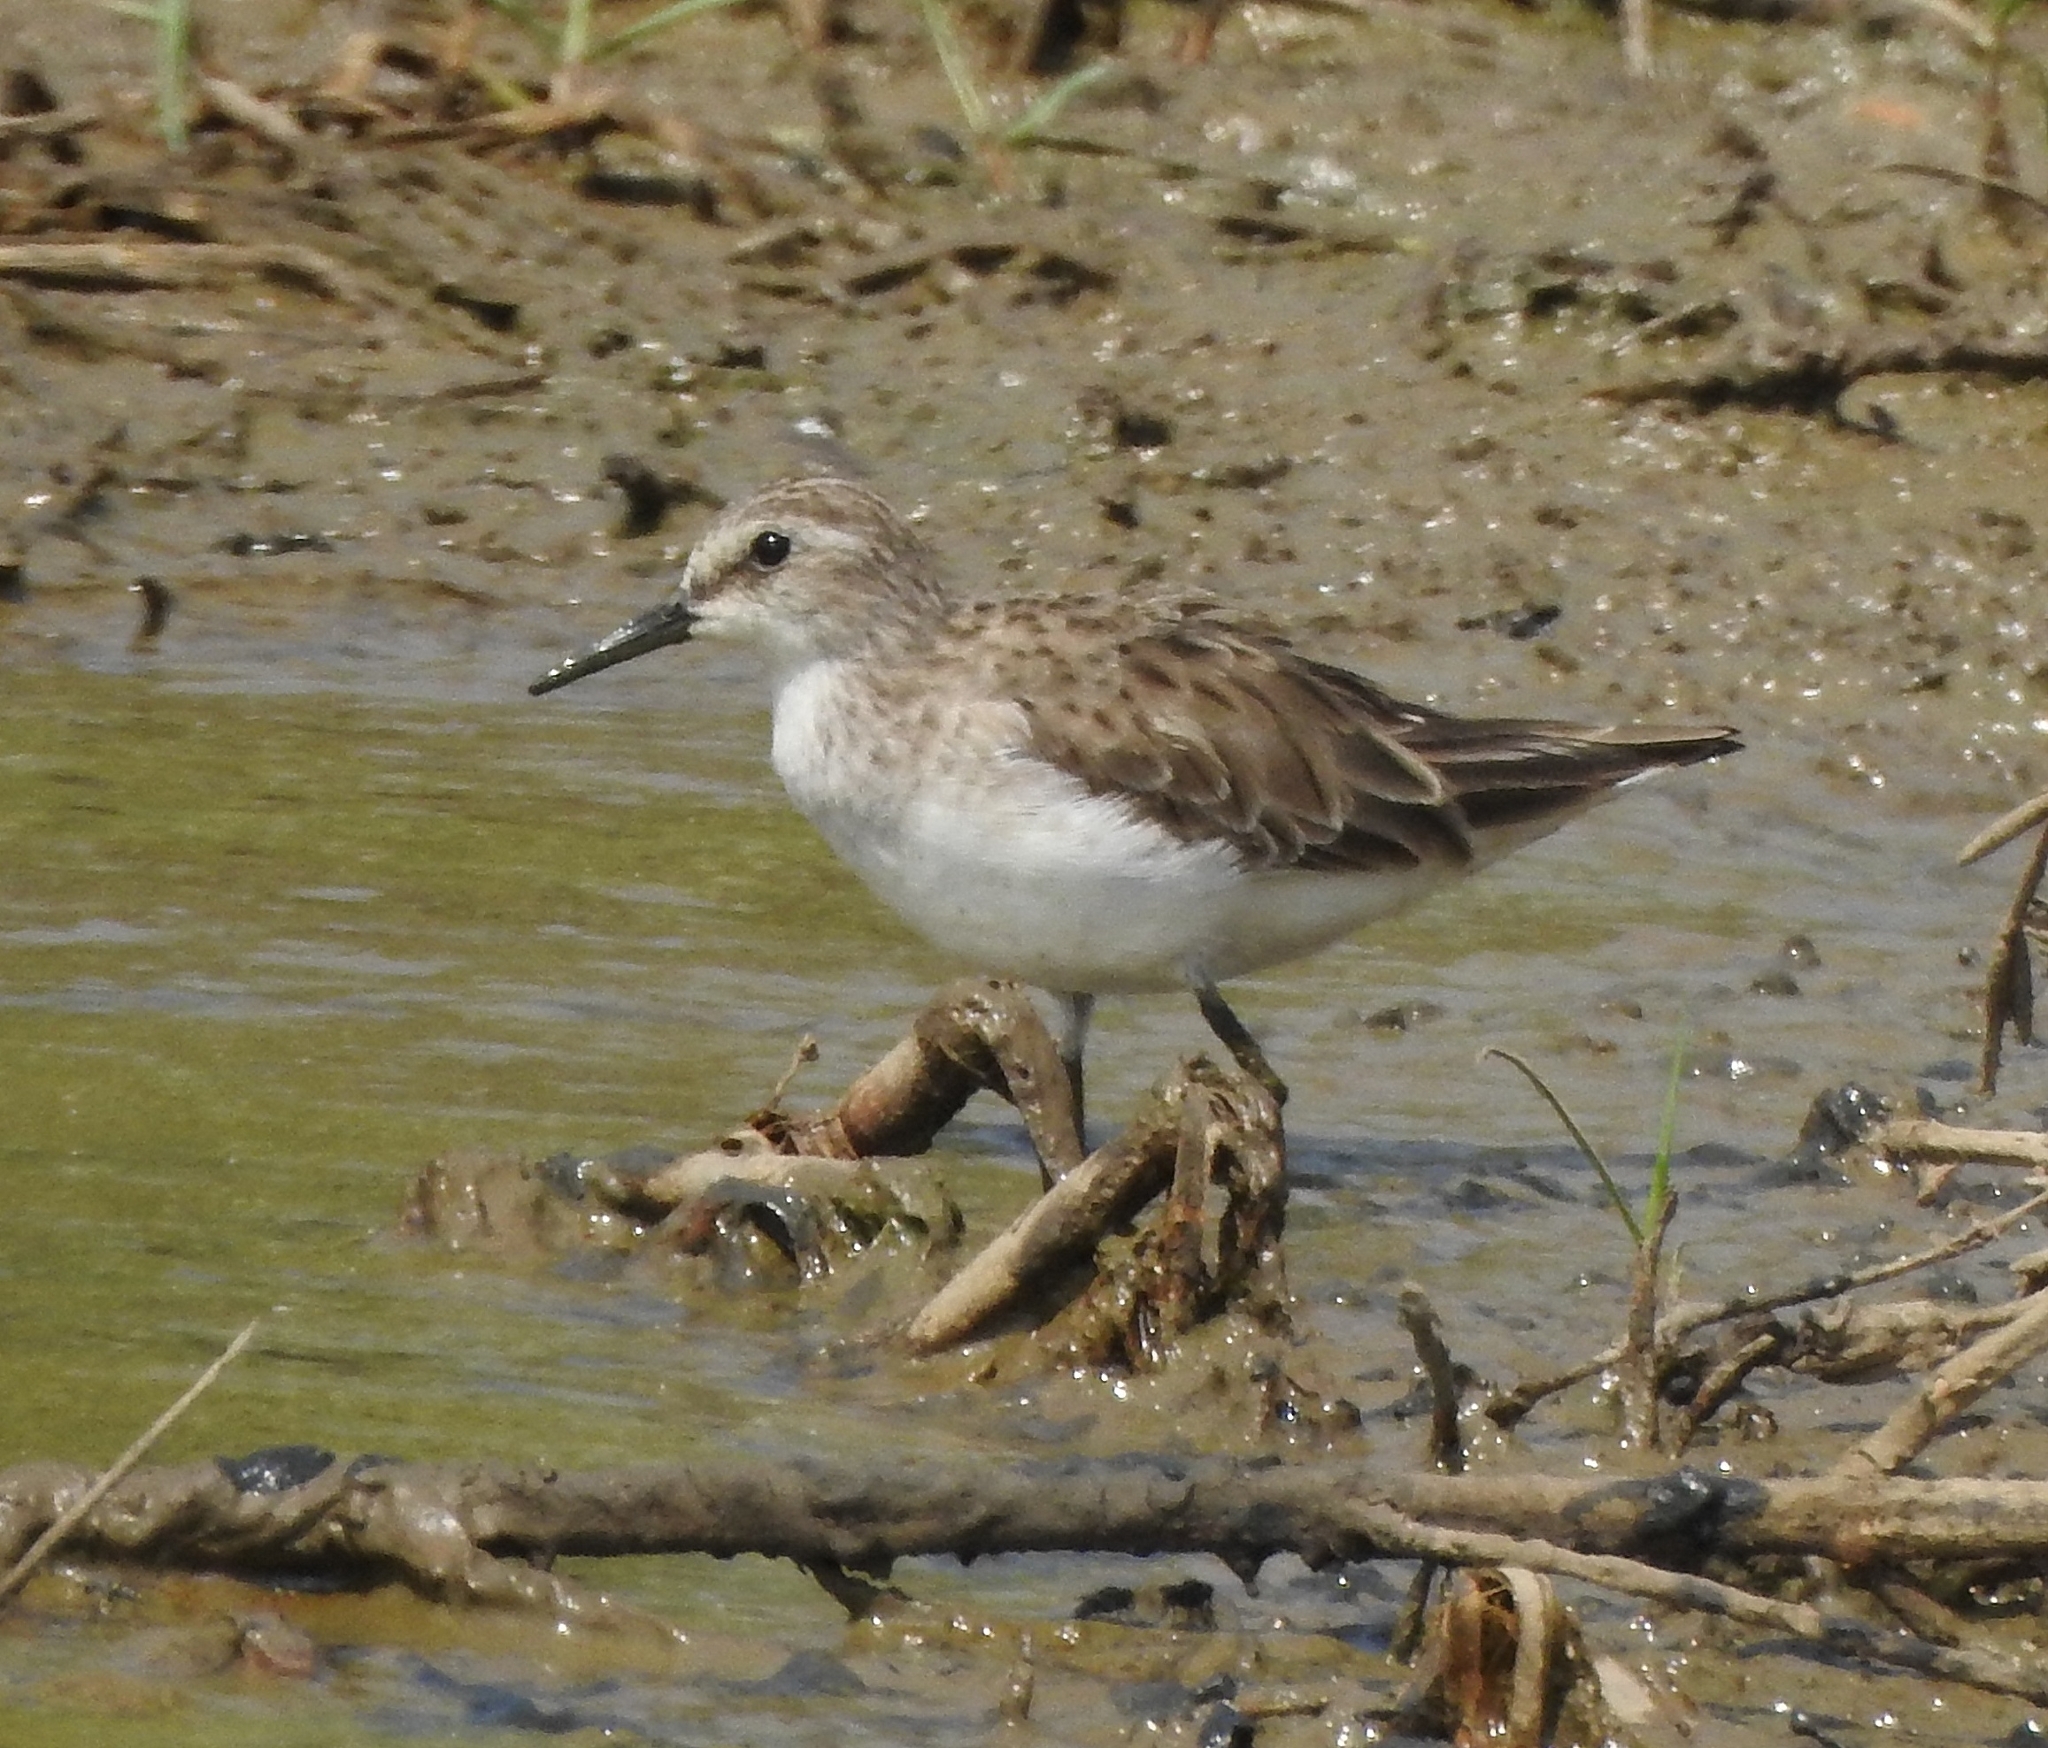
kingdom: Animalia
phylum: Chordata
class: Aves
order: Charadriiformes
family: Scolopacidae
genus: Calidris
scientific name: Calidris minuta
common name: Little stint
